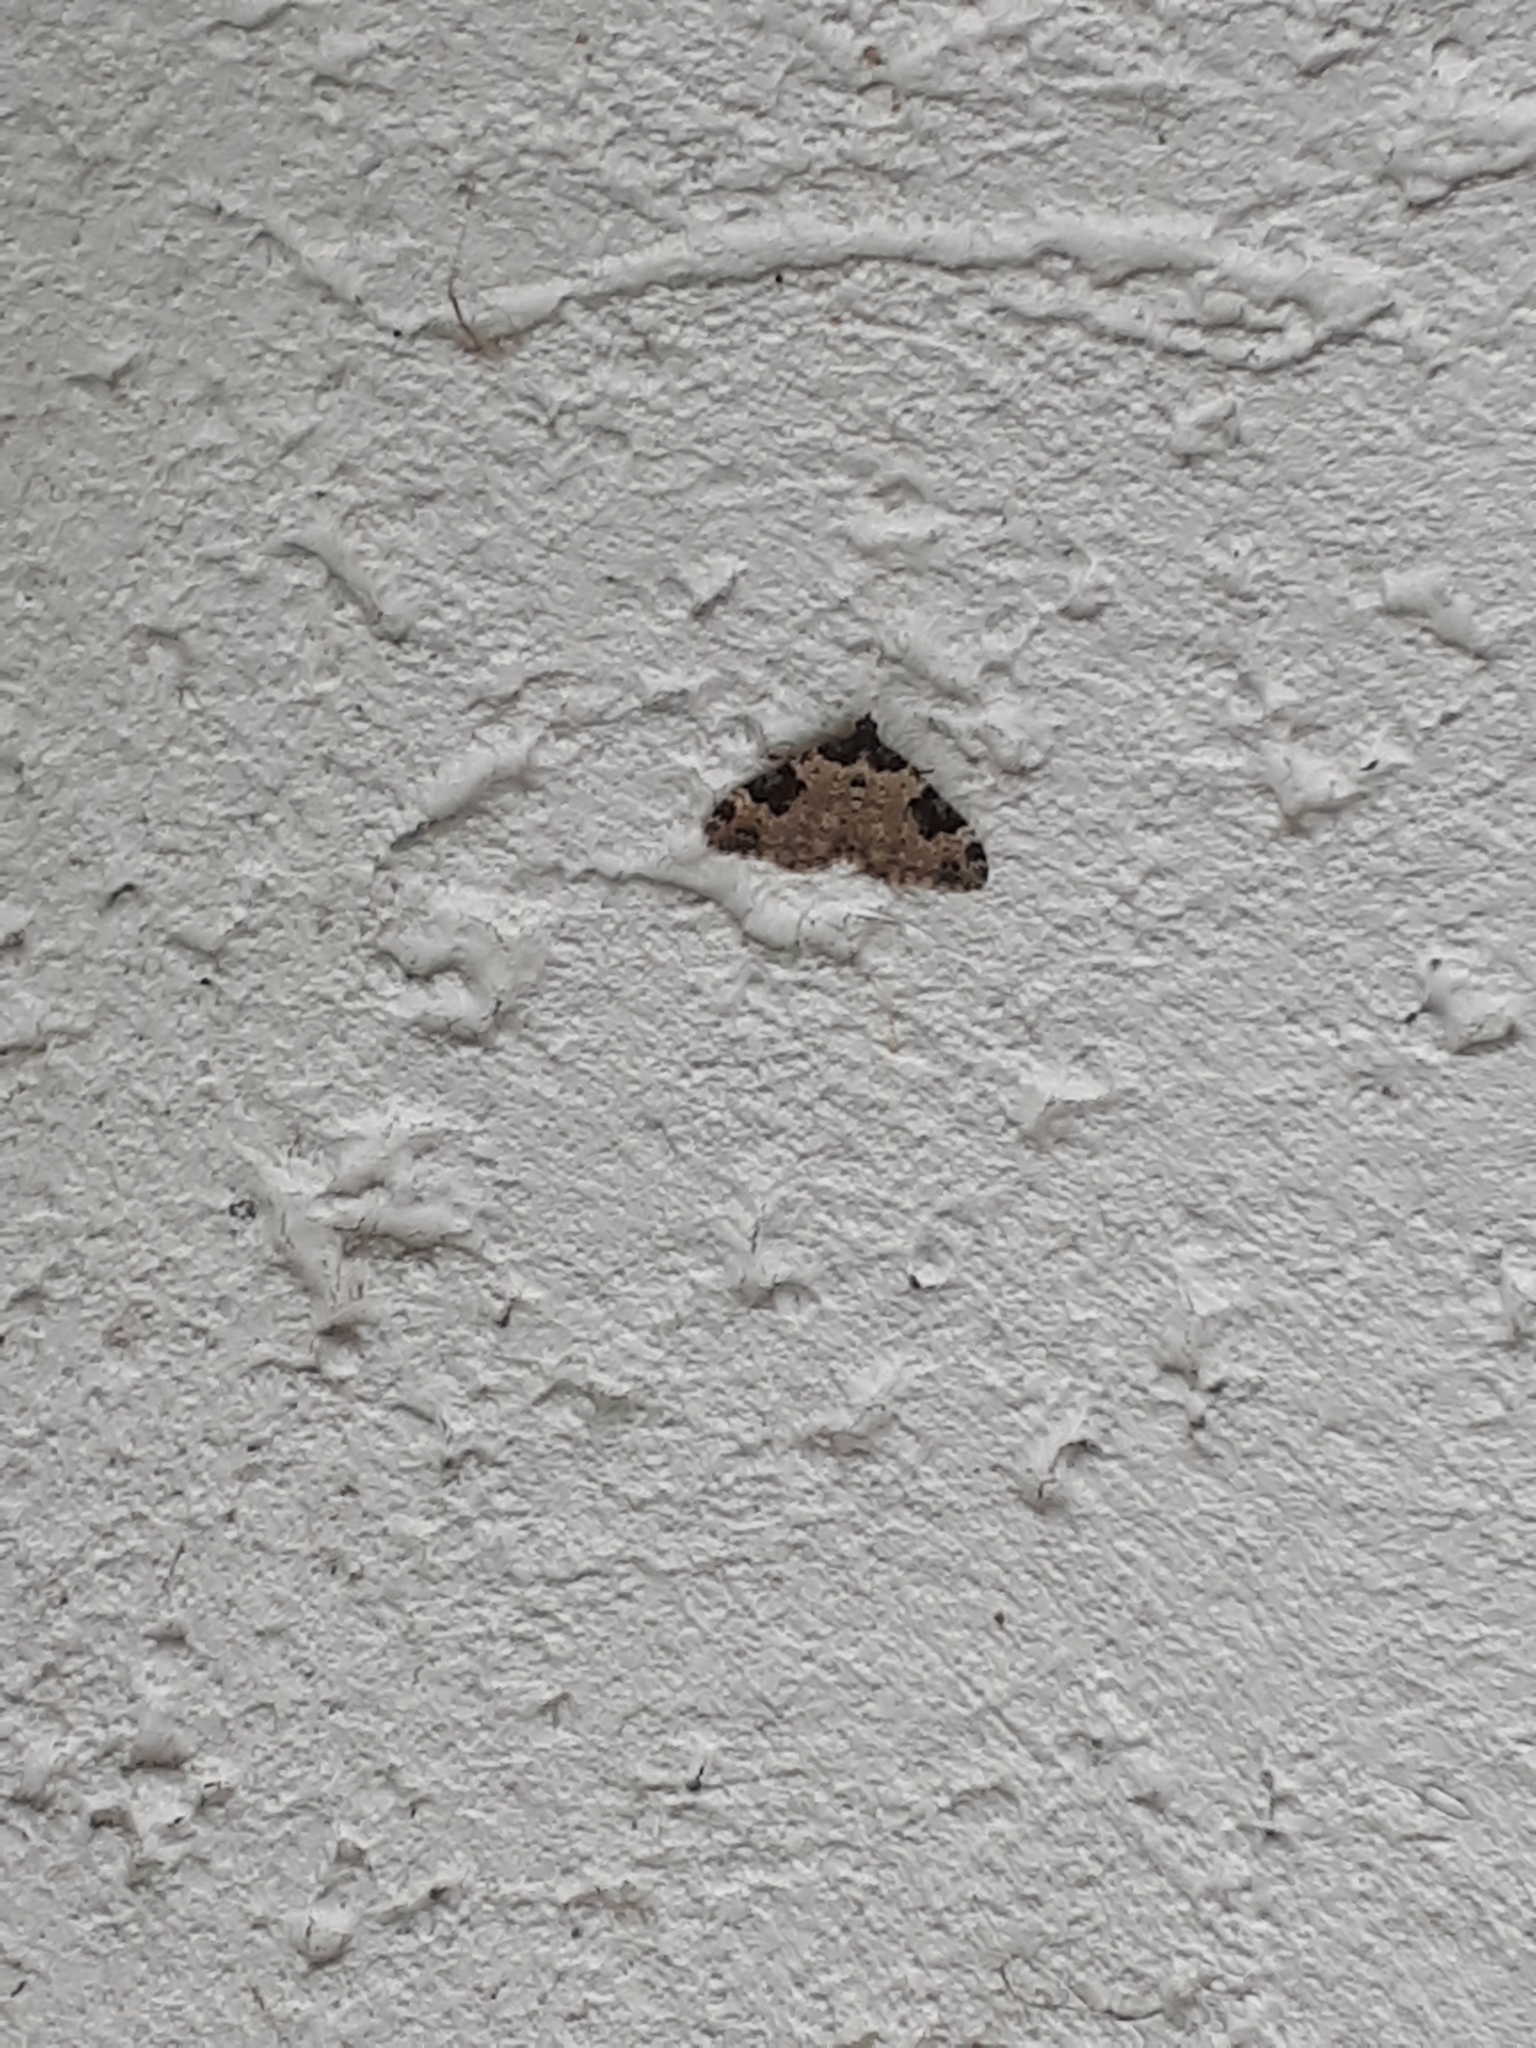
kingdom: Animalia
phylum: Arthropoda
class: Insecta
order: Lepidoptera
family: Geometridae
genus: Xanthorhoe
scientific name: Xanthorhoe fluctuata
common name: Garden carpet
